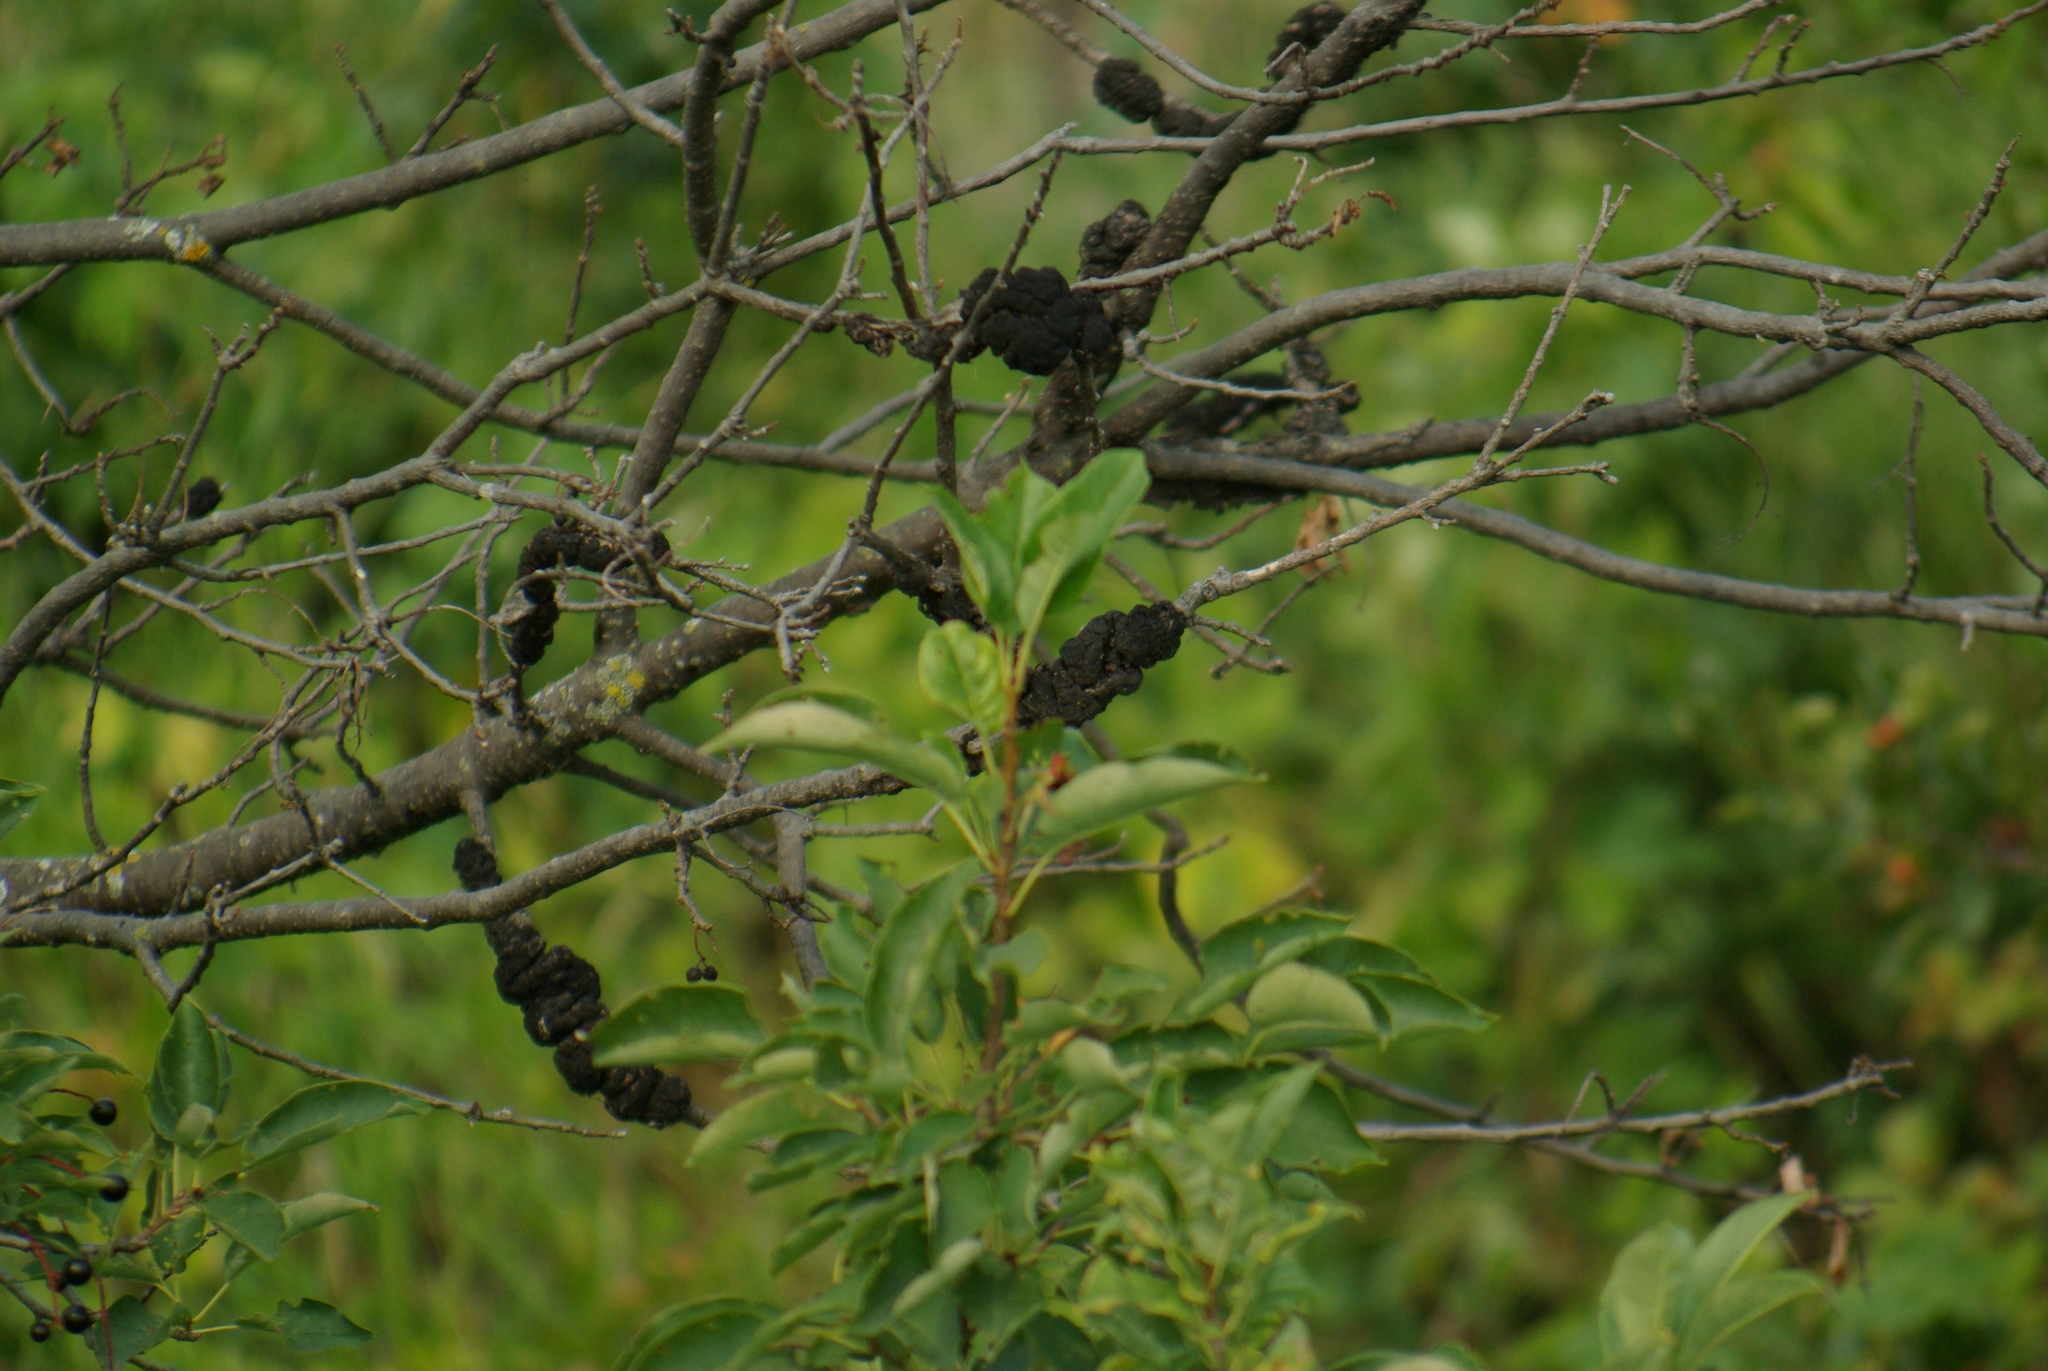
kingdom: Fungi
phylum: Ascomycota
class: Dothideomycetes
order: Venturiales
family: Venturiaceae
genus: Apiosporina
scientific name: Apiosporina morbosa
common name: Black knot
